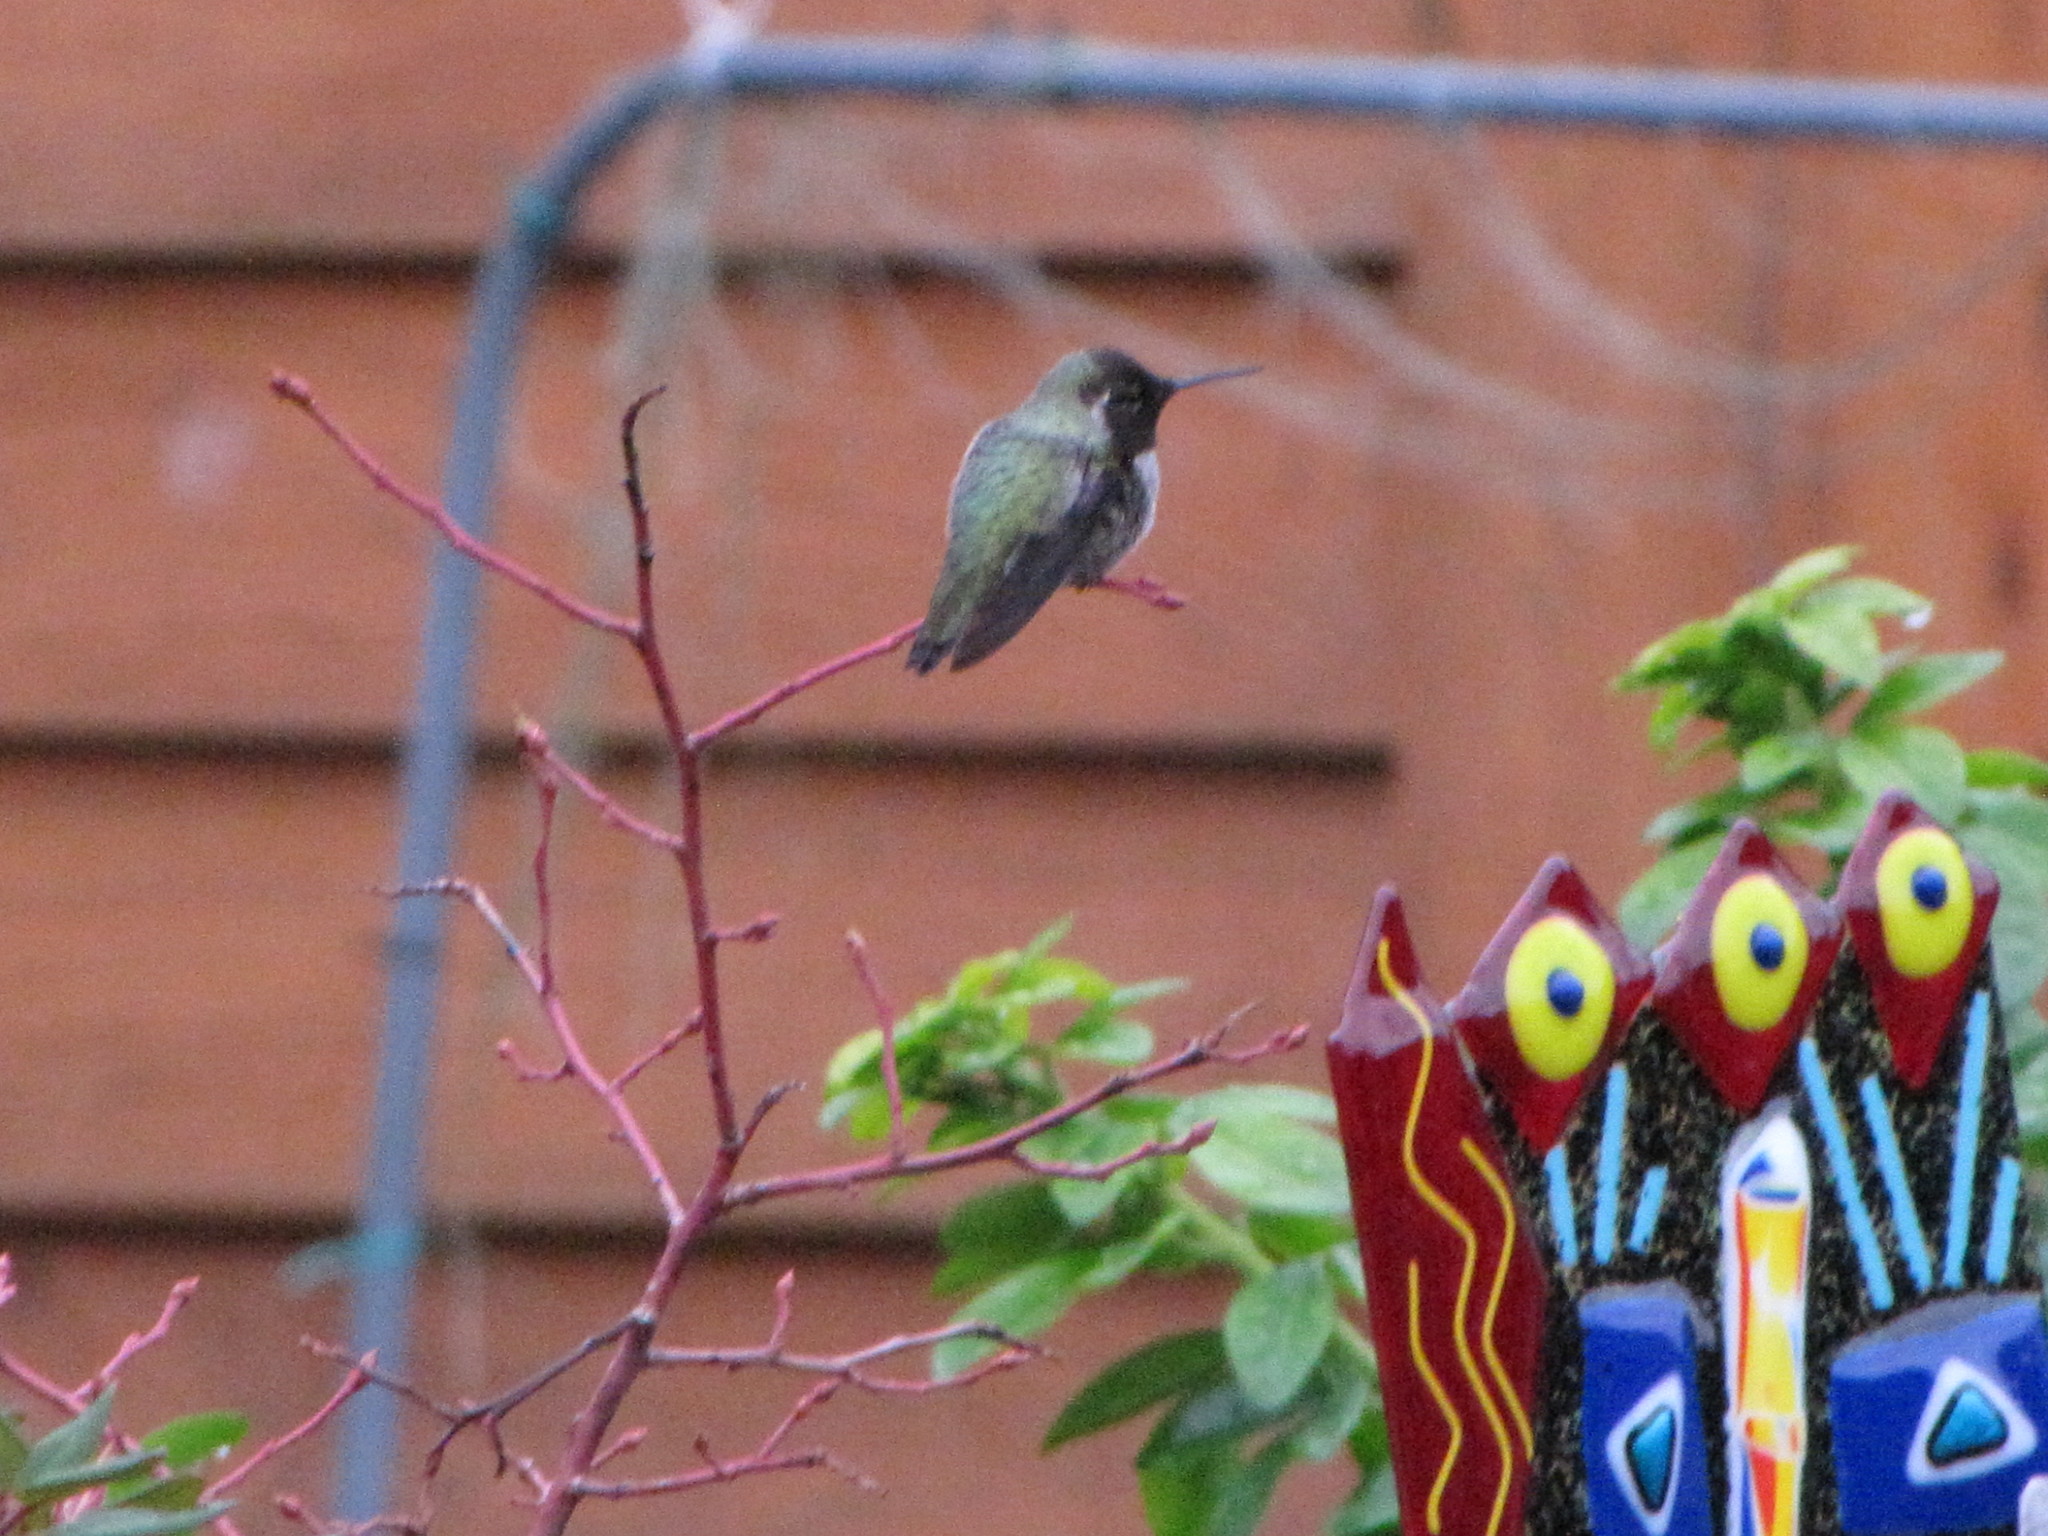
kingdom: Animalia
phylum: Chordata
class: Aves
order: Apodiformes
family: Trochilidae
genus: Calypte
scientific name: Calypte anna
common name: Anna's hummingbird
